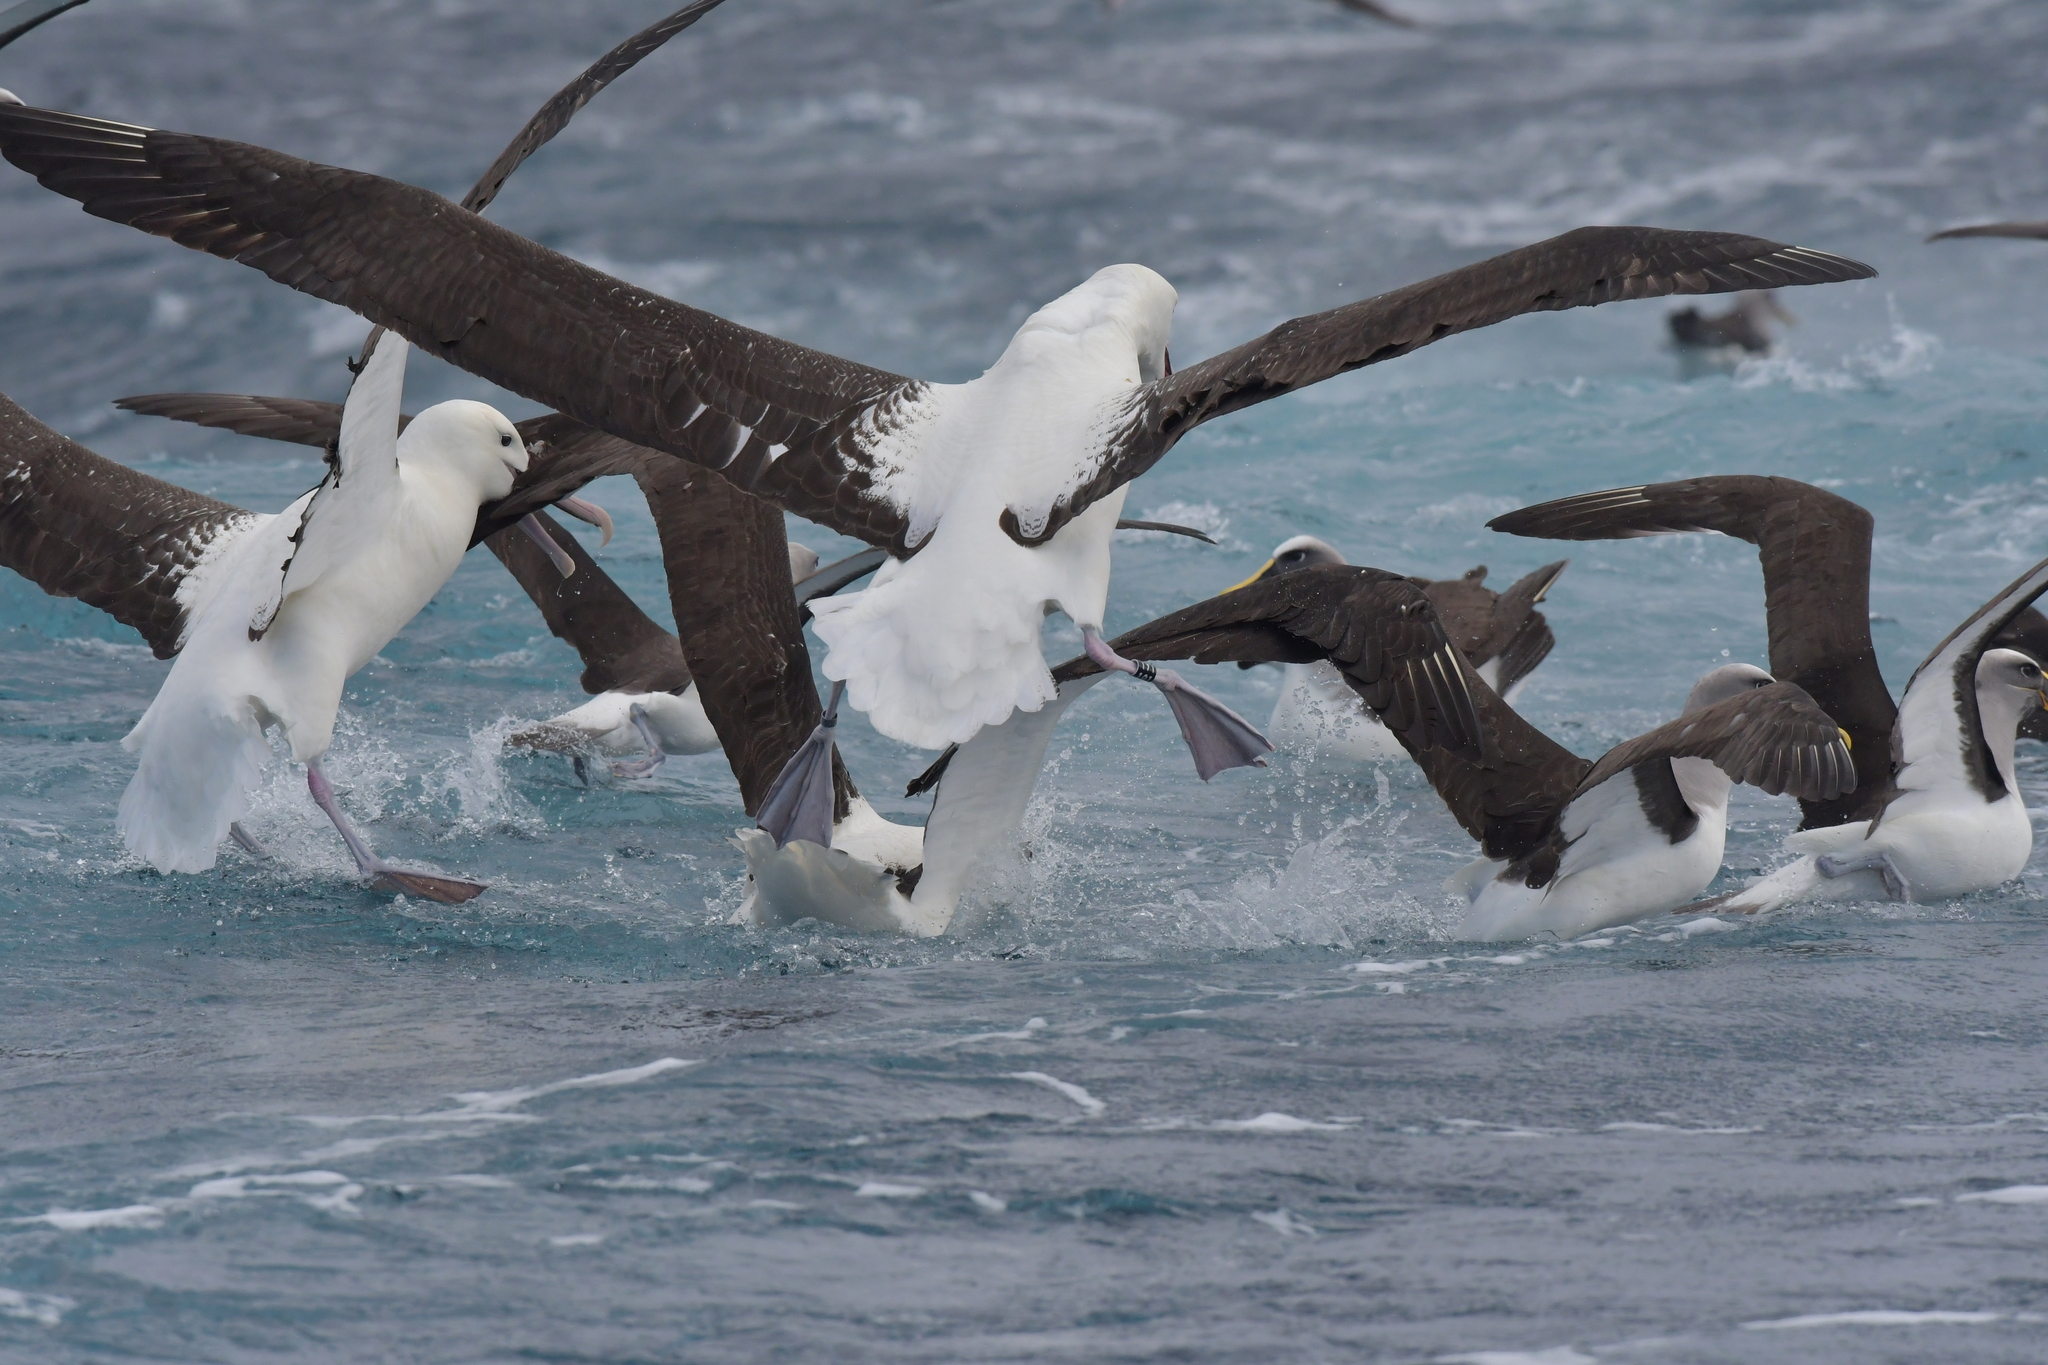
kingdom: Animalia
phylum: Chordata
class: Aves
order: Procellariiformes
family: Diomedeidae
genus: Diomedea
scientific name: Diomedea sanfordi
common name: Northern royal albatross
